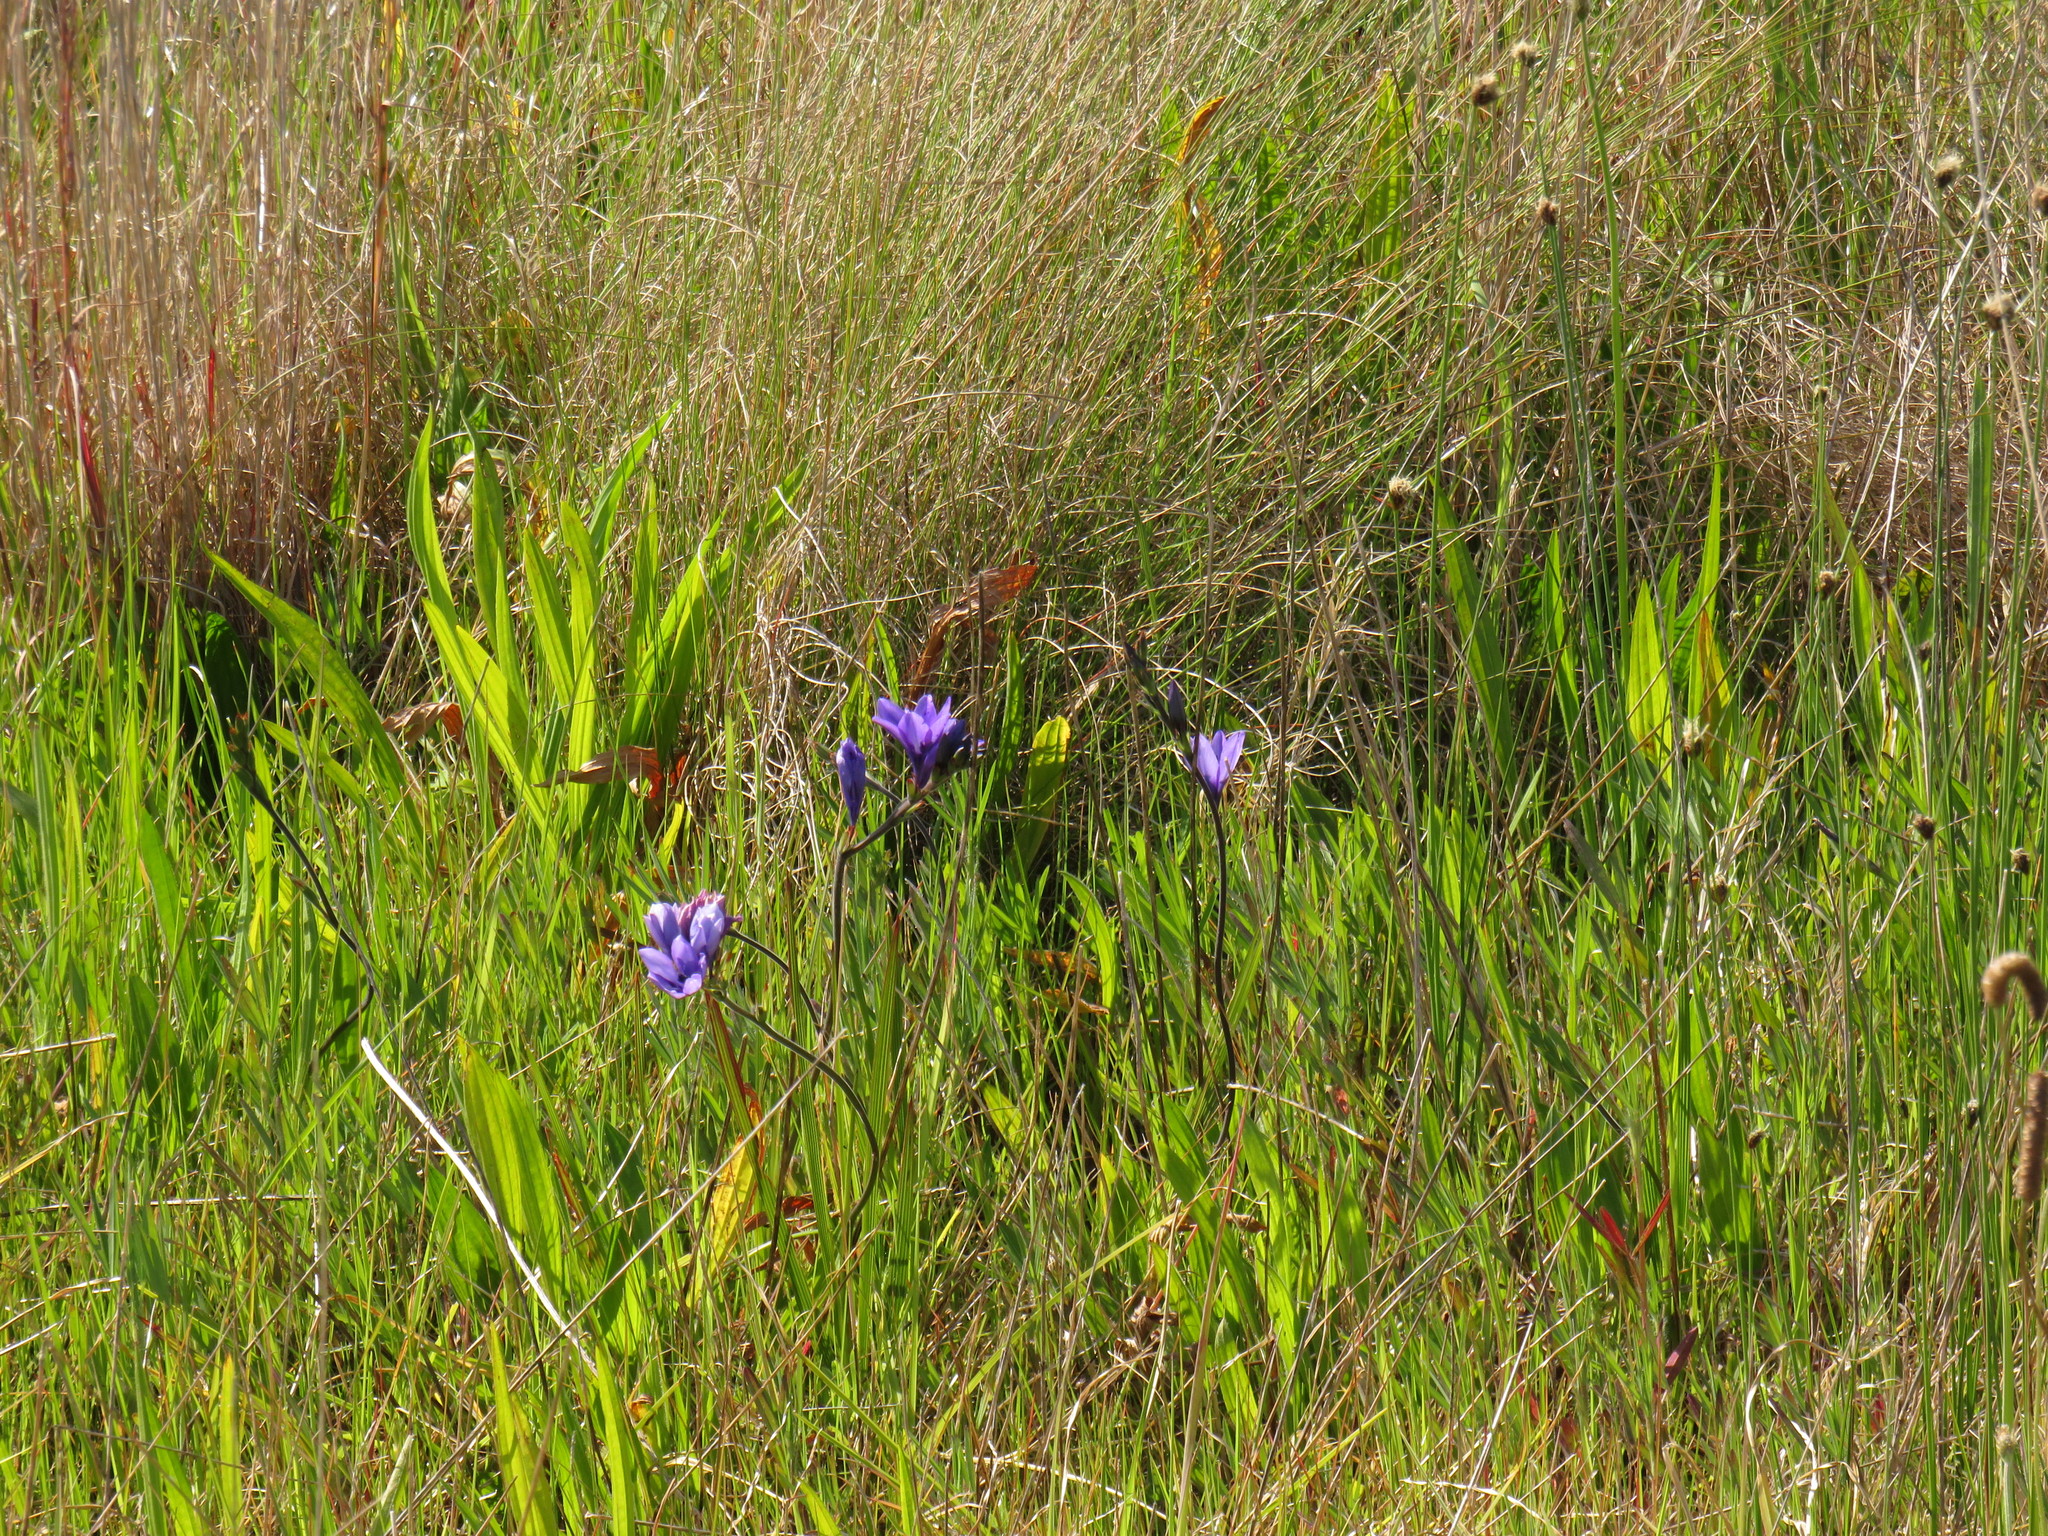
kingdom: Plantae
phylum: Tracheophyta
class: Liliopsida
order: Asparagales
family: Iridaceae
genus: Babiana
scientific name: Babiana angustifolia
